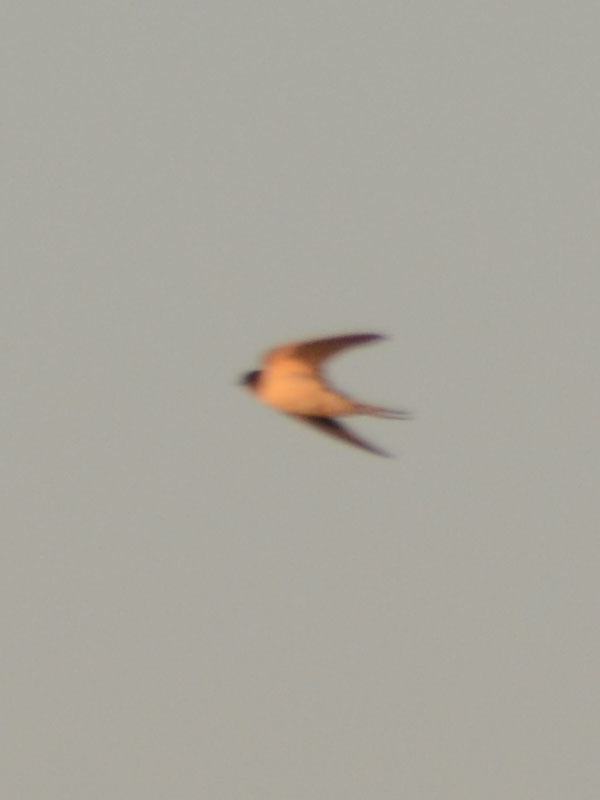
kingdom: Animalia
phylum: Chordata
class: Aves
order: Passeriformes
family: Hirundinidae
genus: Hirundo
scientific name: Hirundo rustica
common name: Barn swallow
